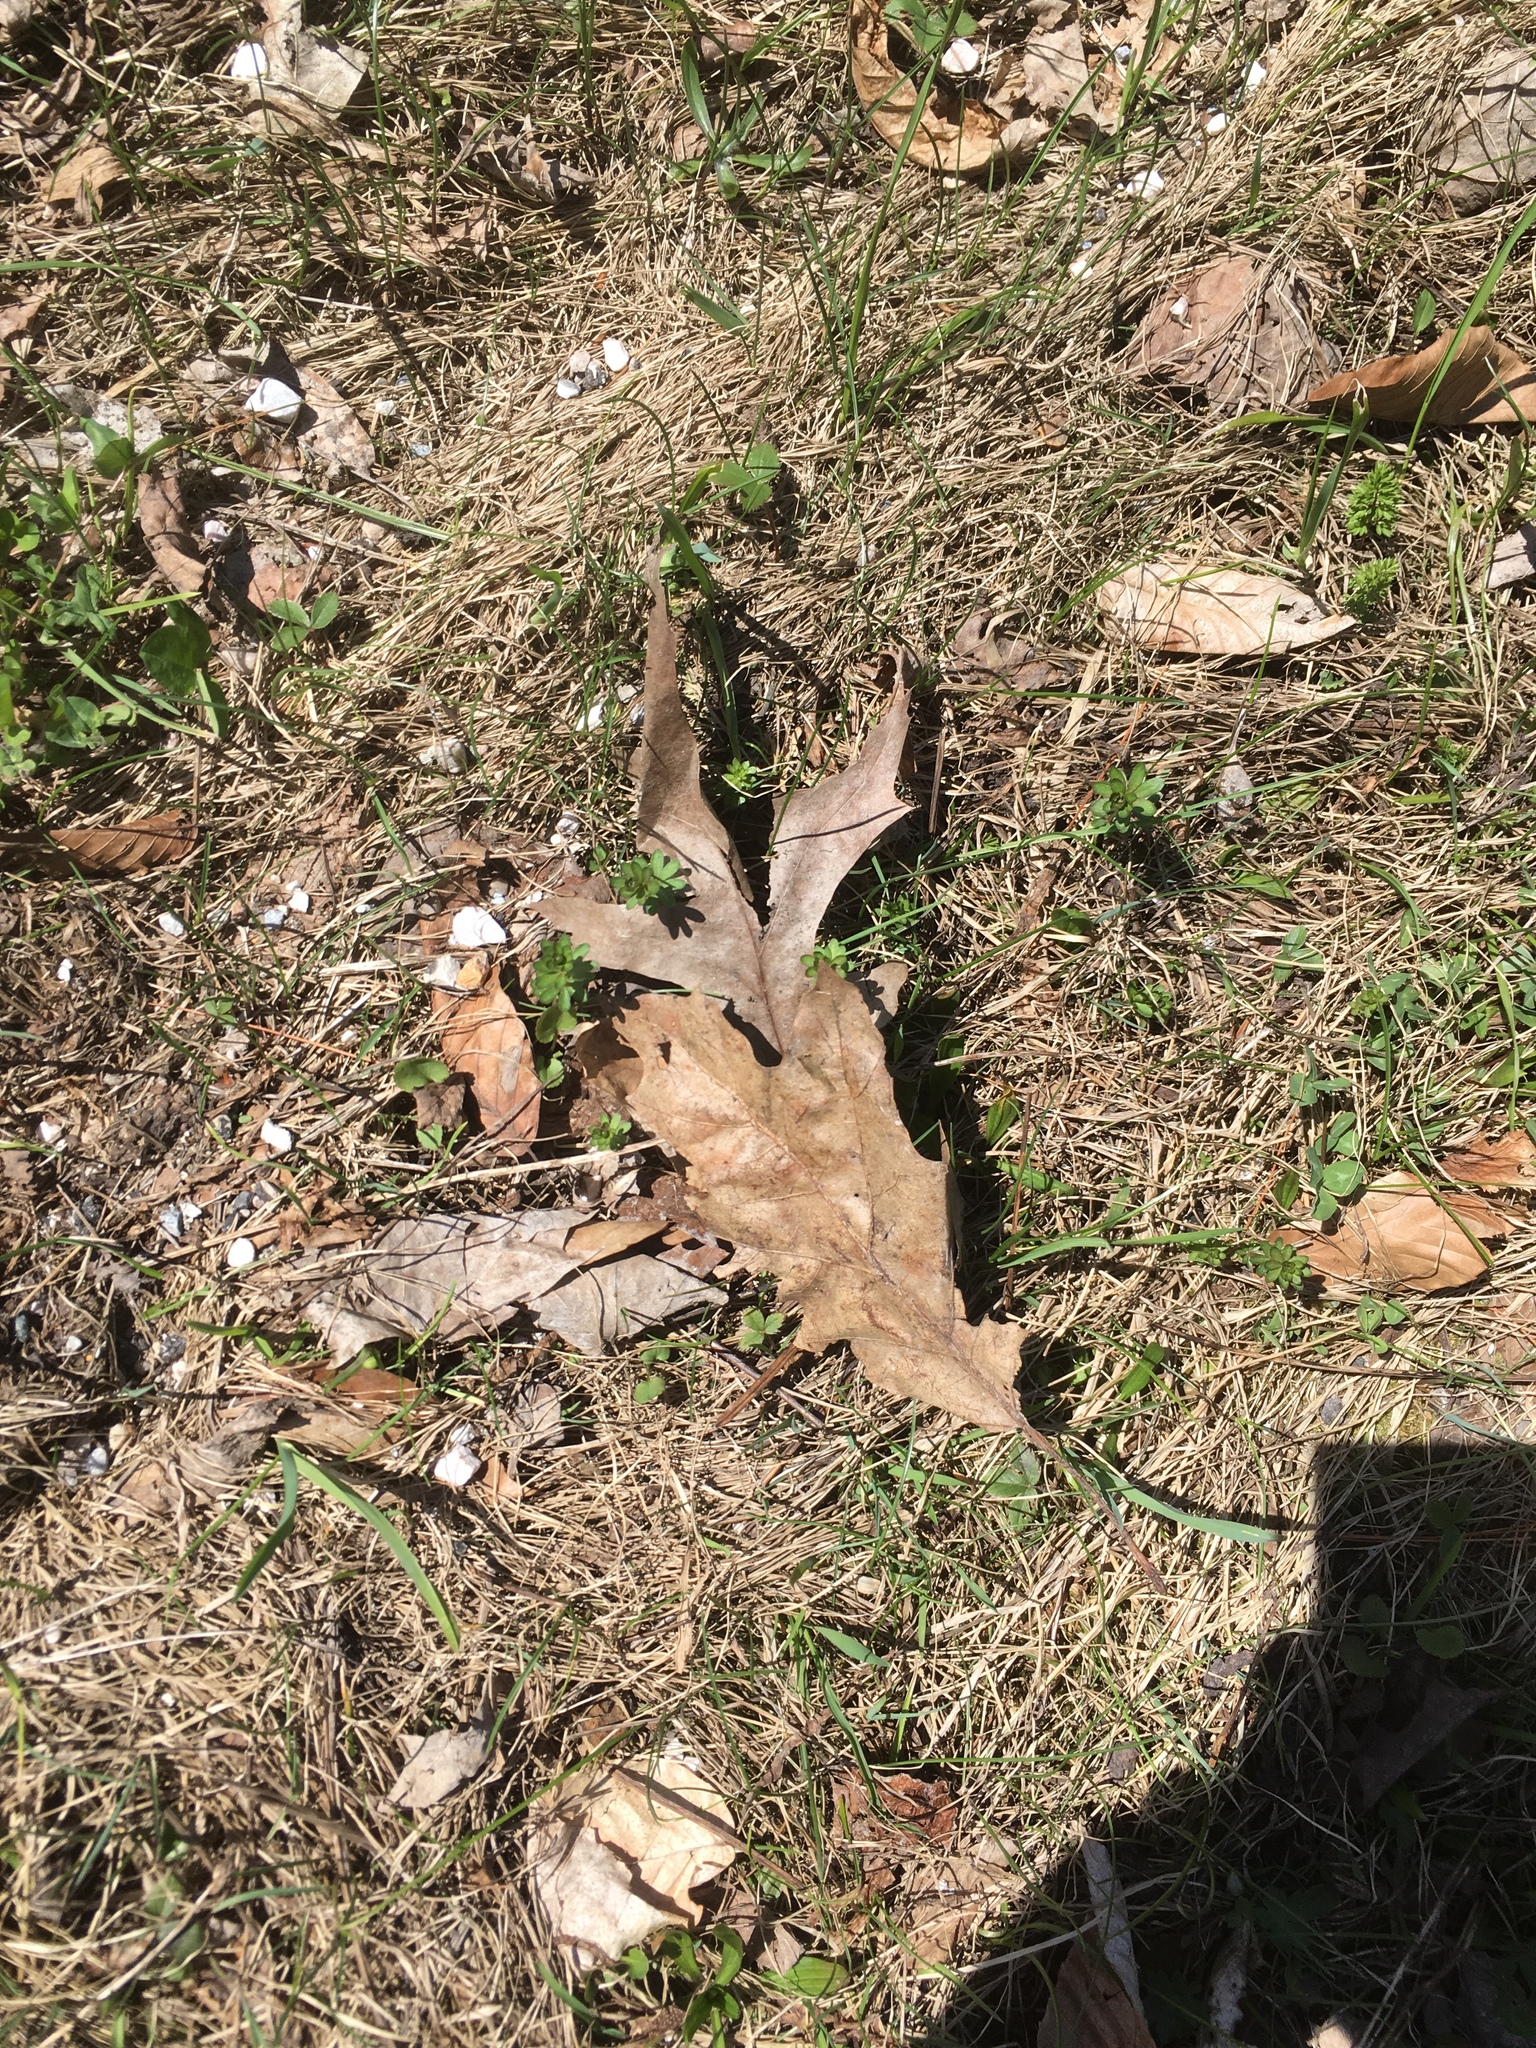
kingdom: Plantae
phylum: Tracheophyta
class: Magnoliopsida
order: Fagales
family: Fagaceae
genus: Quercus
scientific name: Quercus rubra
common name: Red oak
